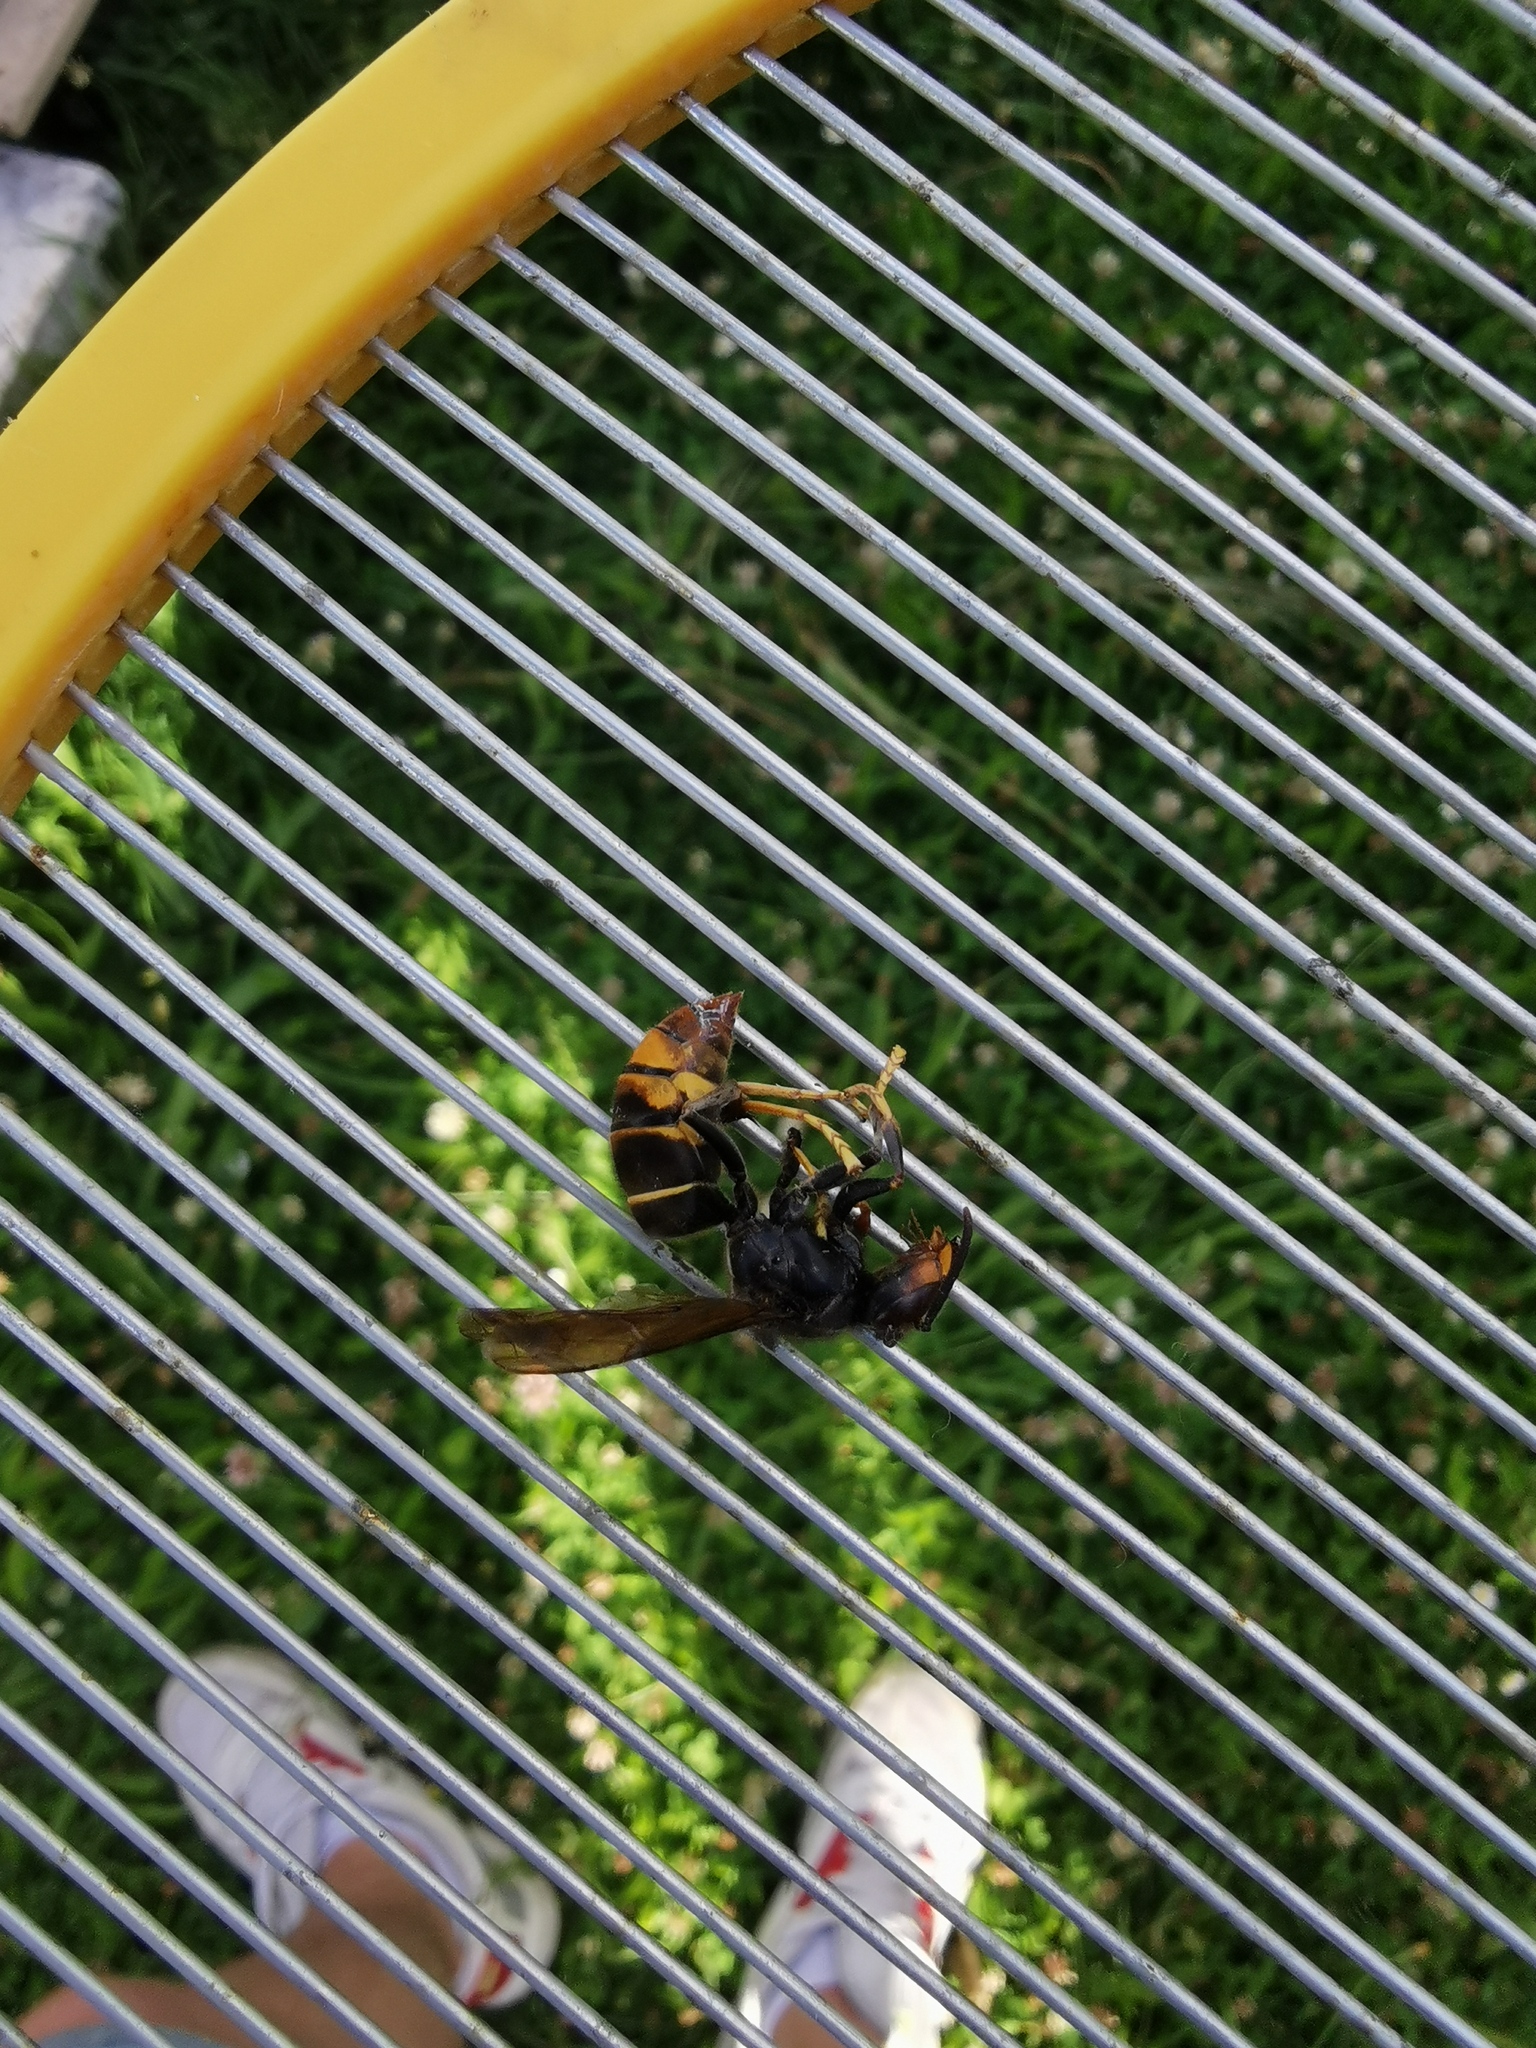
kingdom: Animalia
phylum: Arthropoda
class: Insecta
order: Hymenoptera
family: Vespidae
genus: Vespa
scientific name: Vespa velutina
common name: Asian hornet
